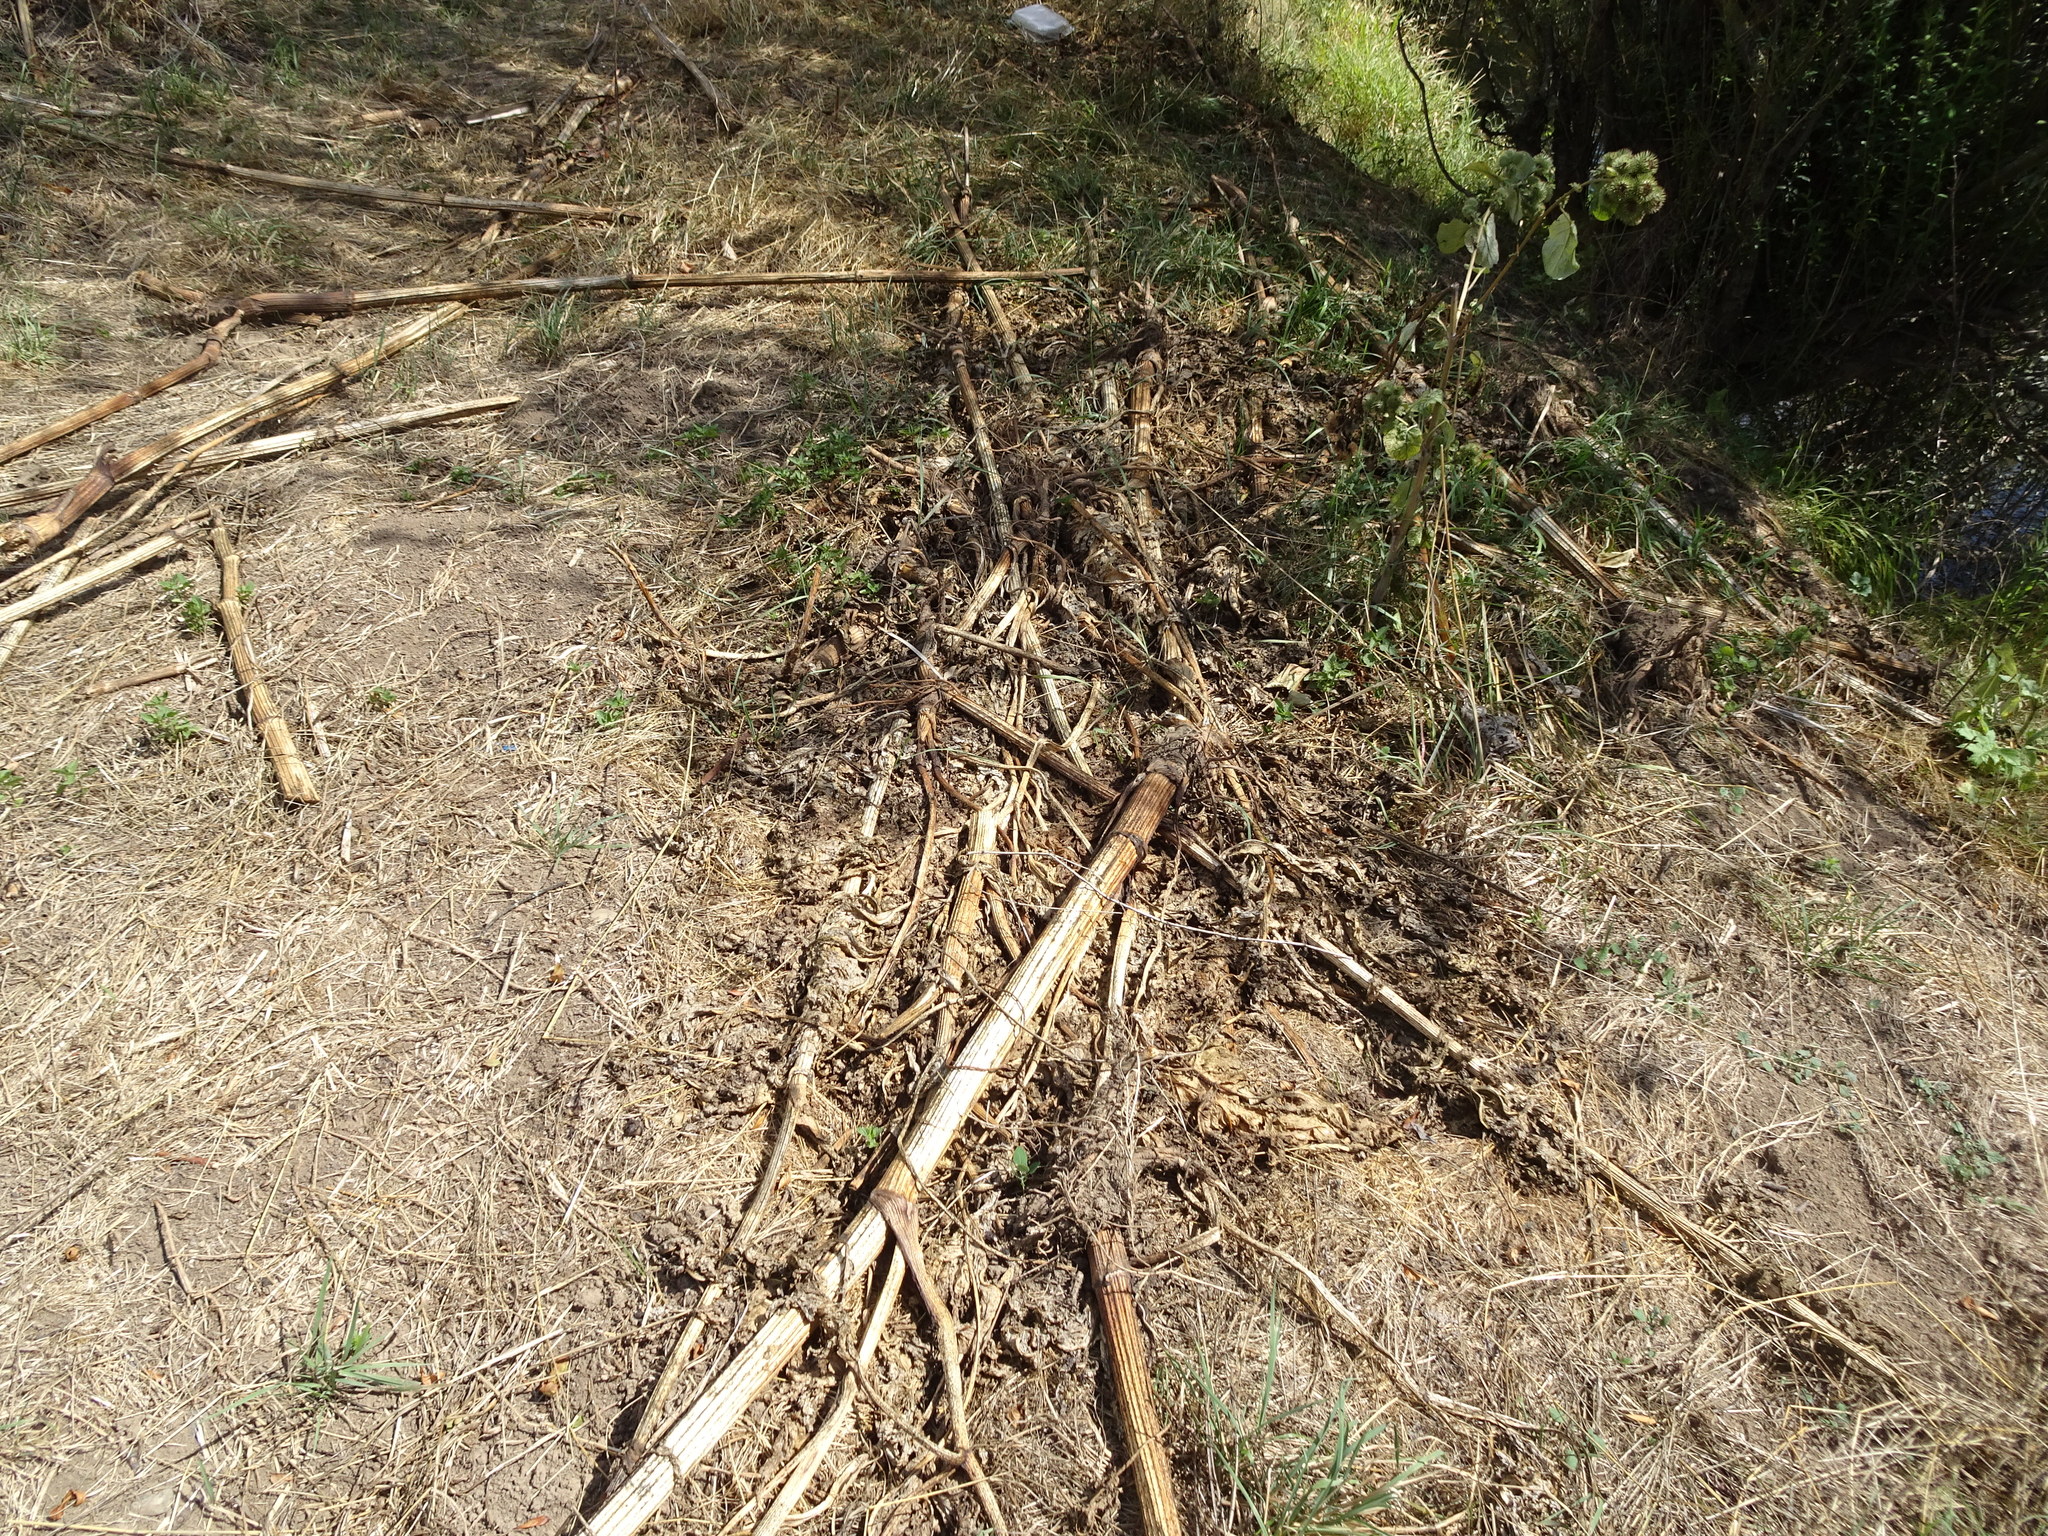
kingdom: Plantae
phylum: Tracheophyta
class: Magnoliopsida
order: Apiales
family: Apiaceae
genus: Heracleum
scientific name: Heracleum mantegazzianum
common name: Giant hogweed
